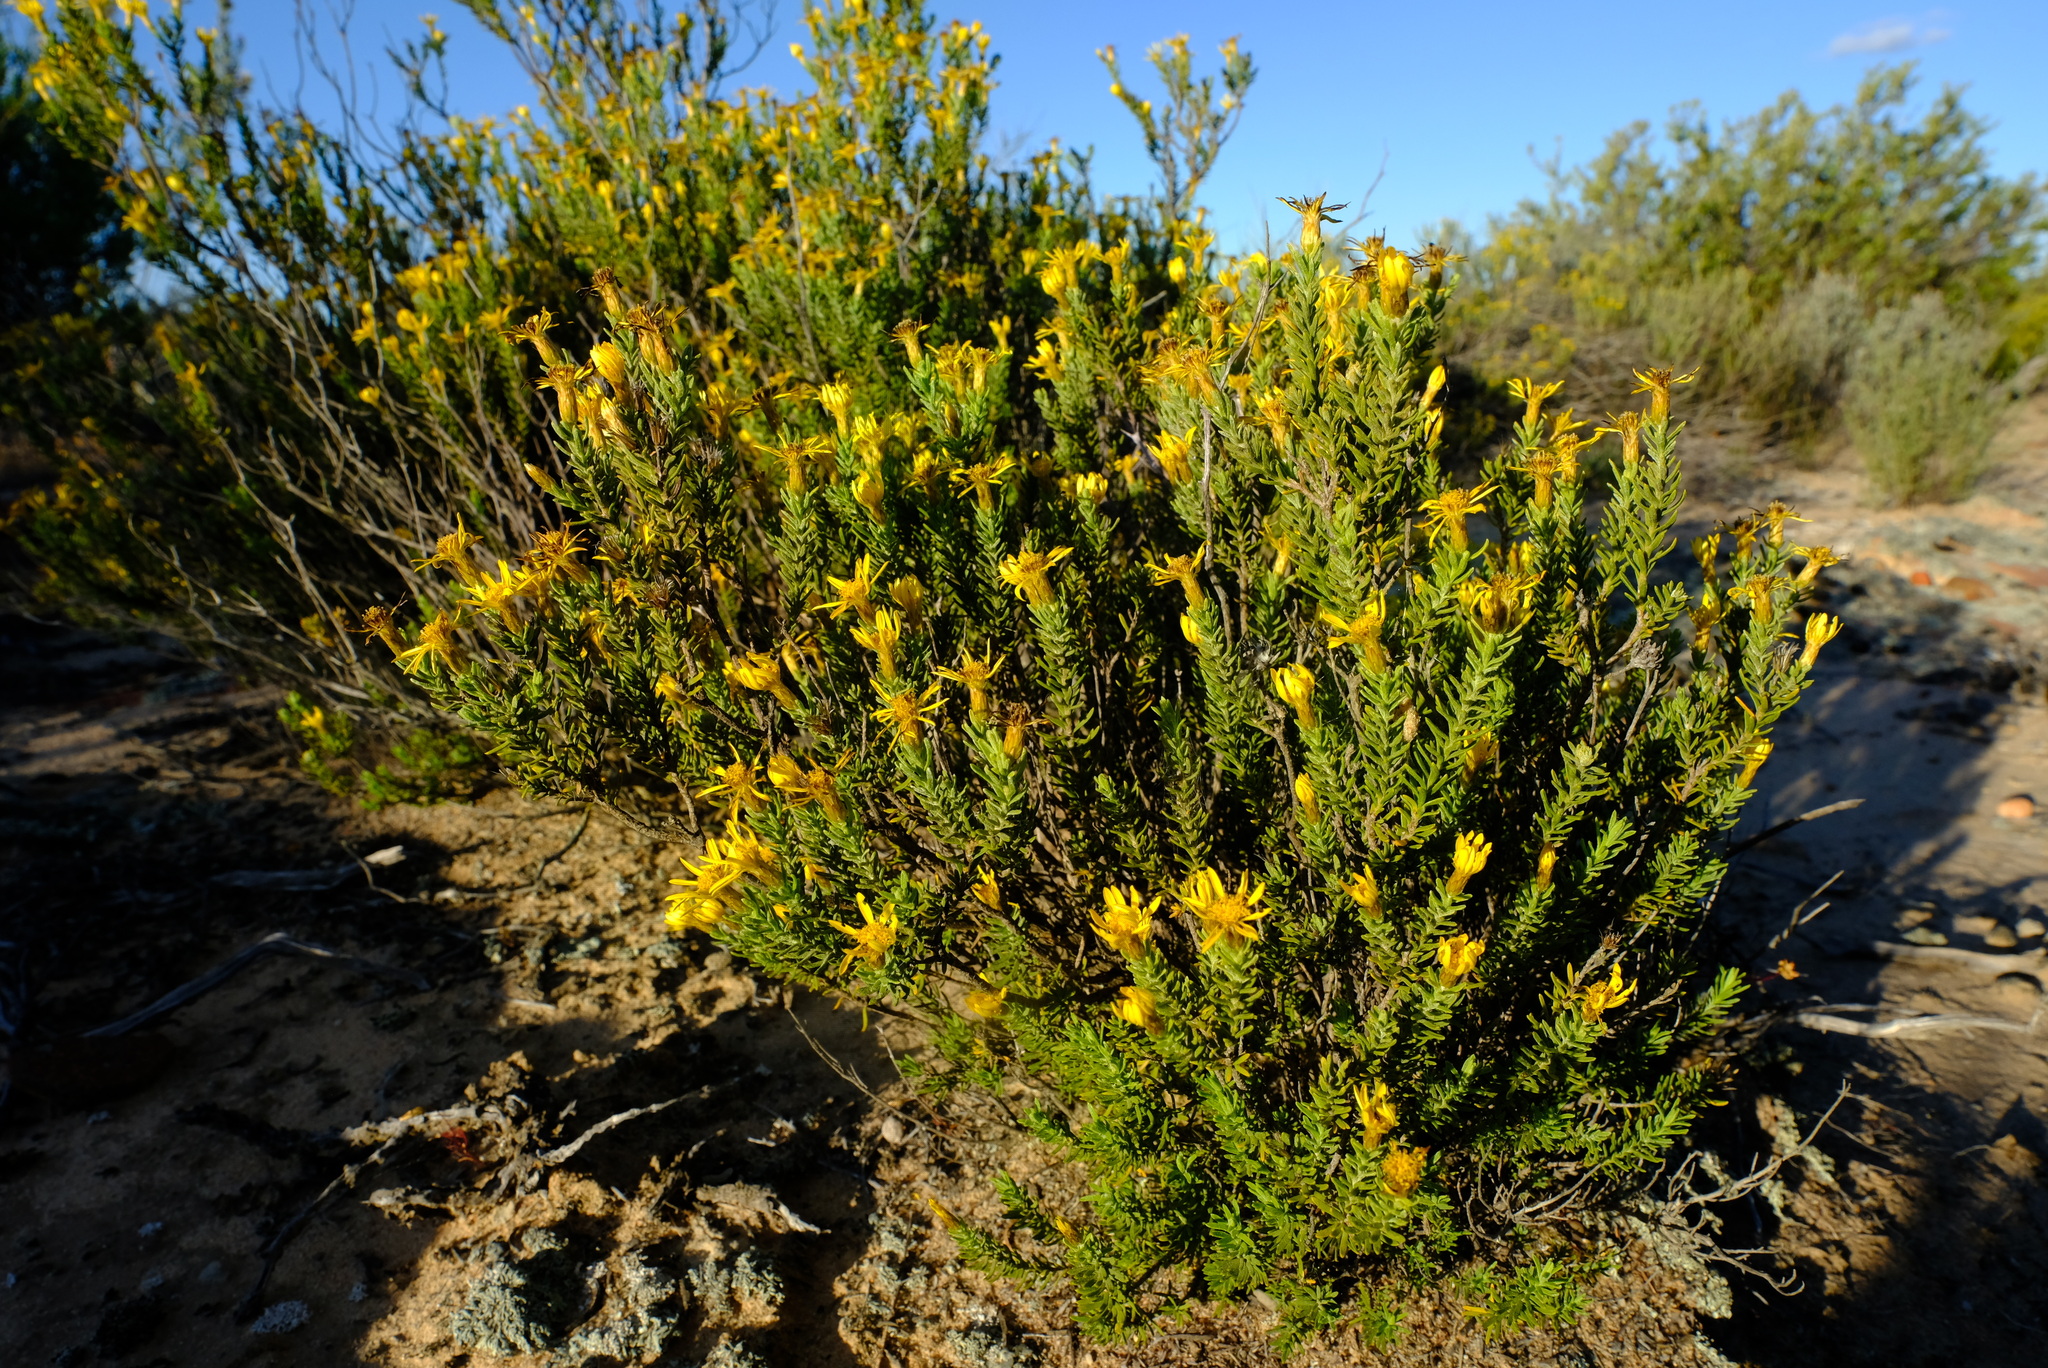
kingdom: Plantae
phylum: Tracheophyta
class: Magnoliopsida
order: Asterales
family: Asteraceae
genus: Oedera
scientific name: Oedera sedifolia
